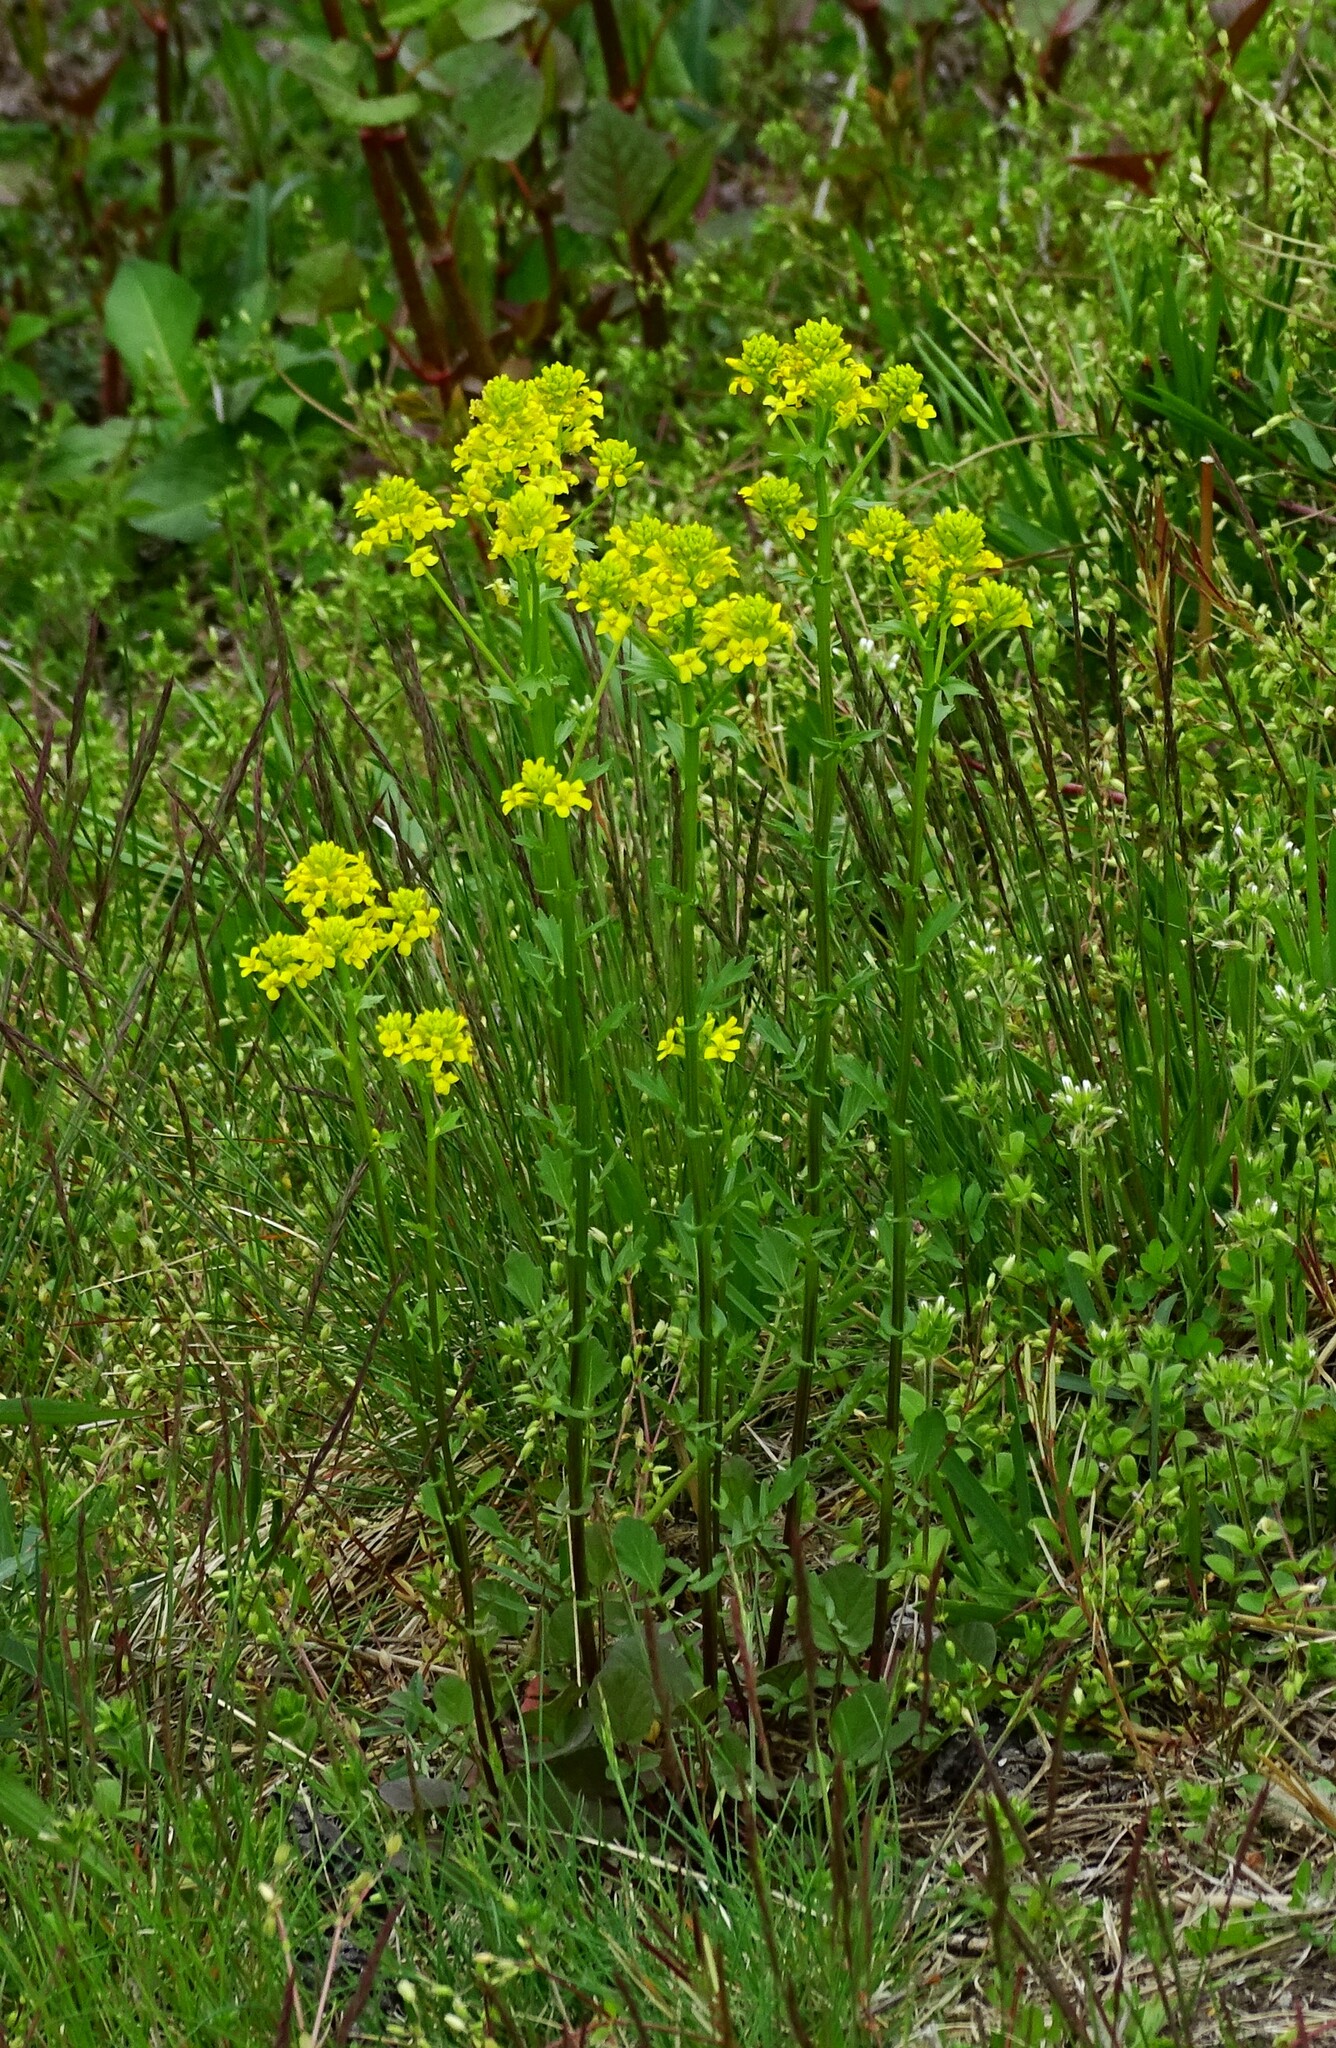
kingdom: Plantae
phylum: Tracheophyta
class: Magnoliopsida
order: Brassicales
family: Brassicaceae
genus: Barbarea
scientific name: Barbarea vulgaris
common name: Cressy-greens
